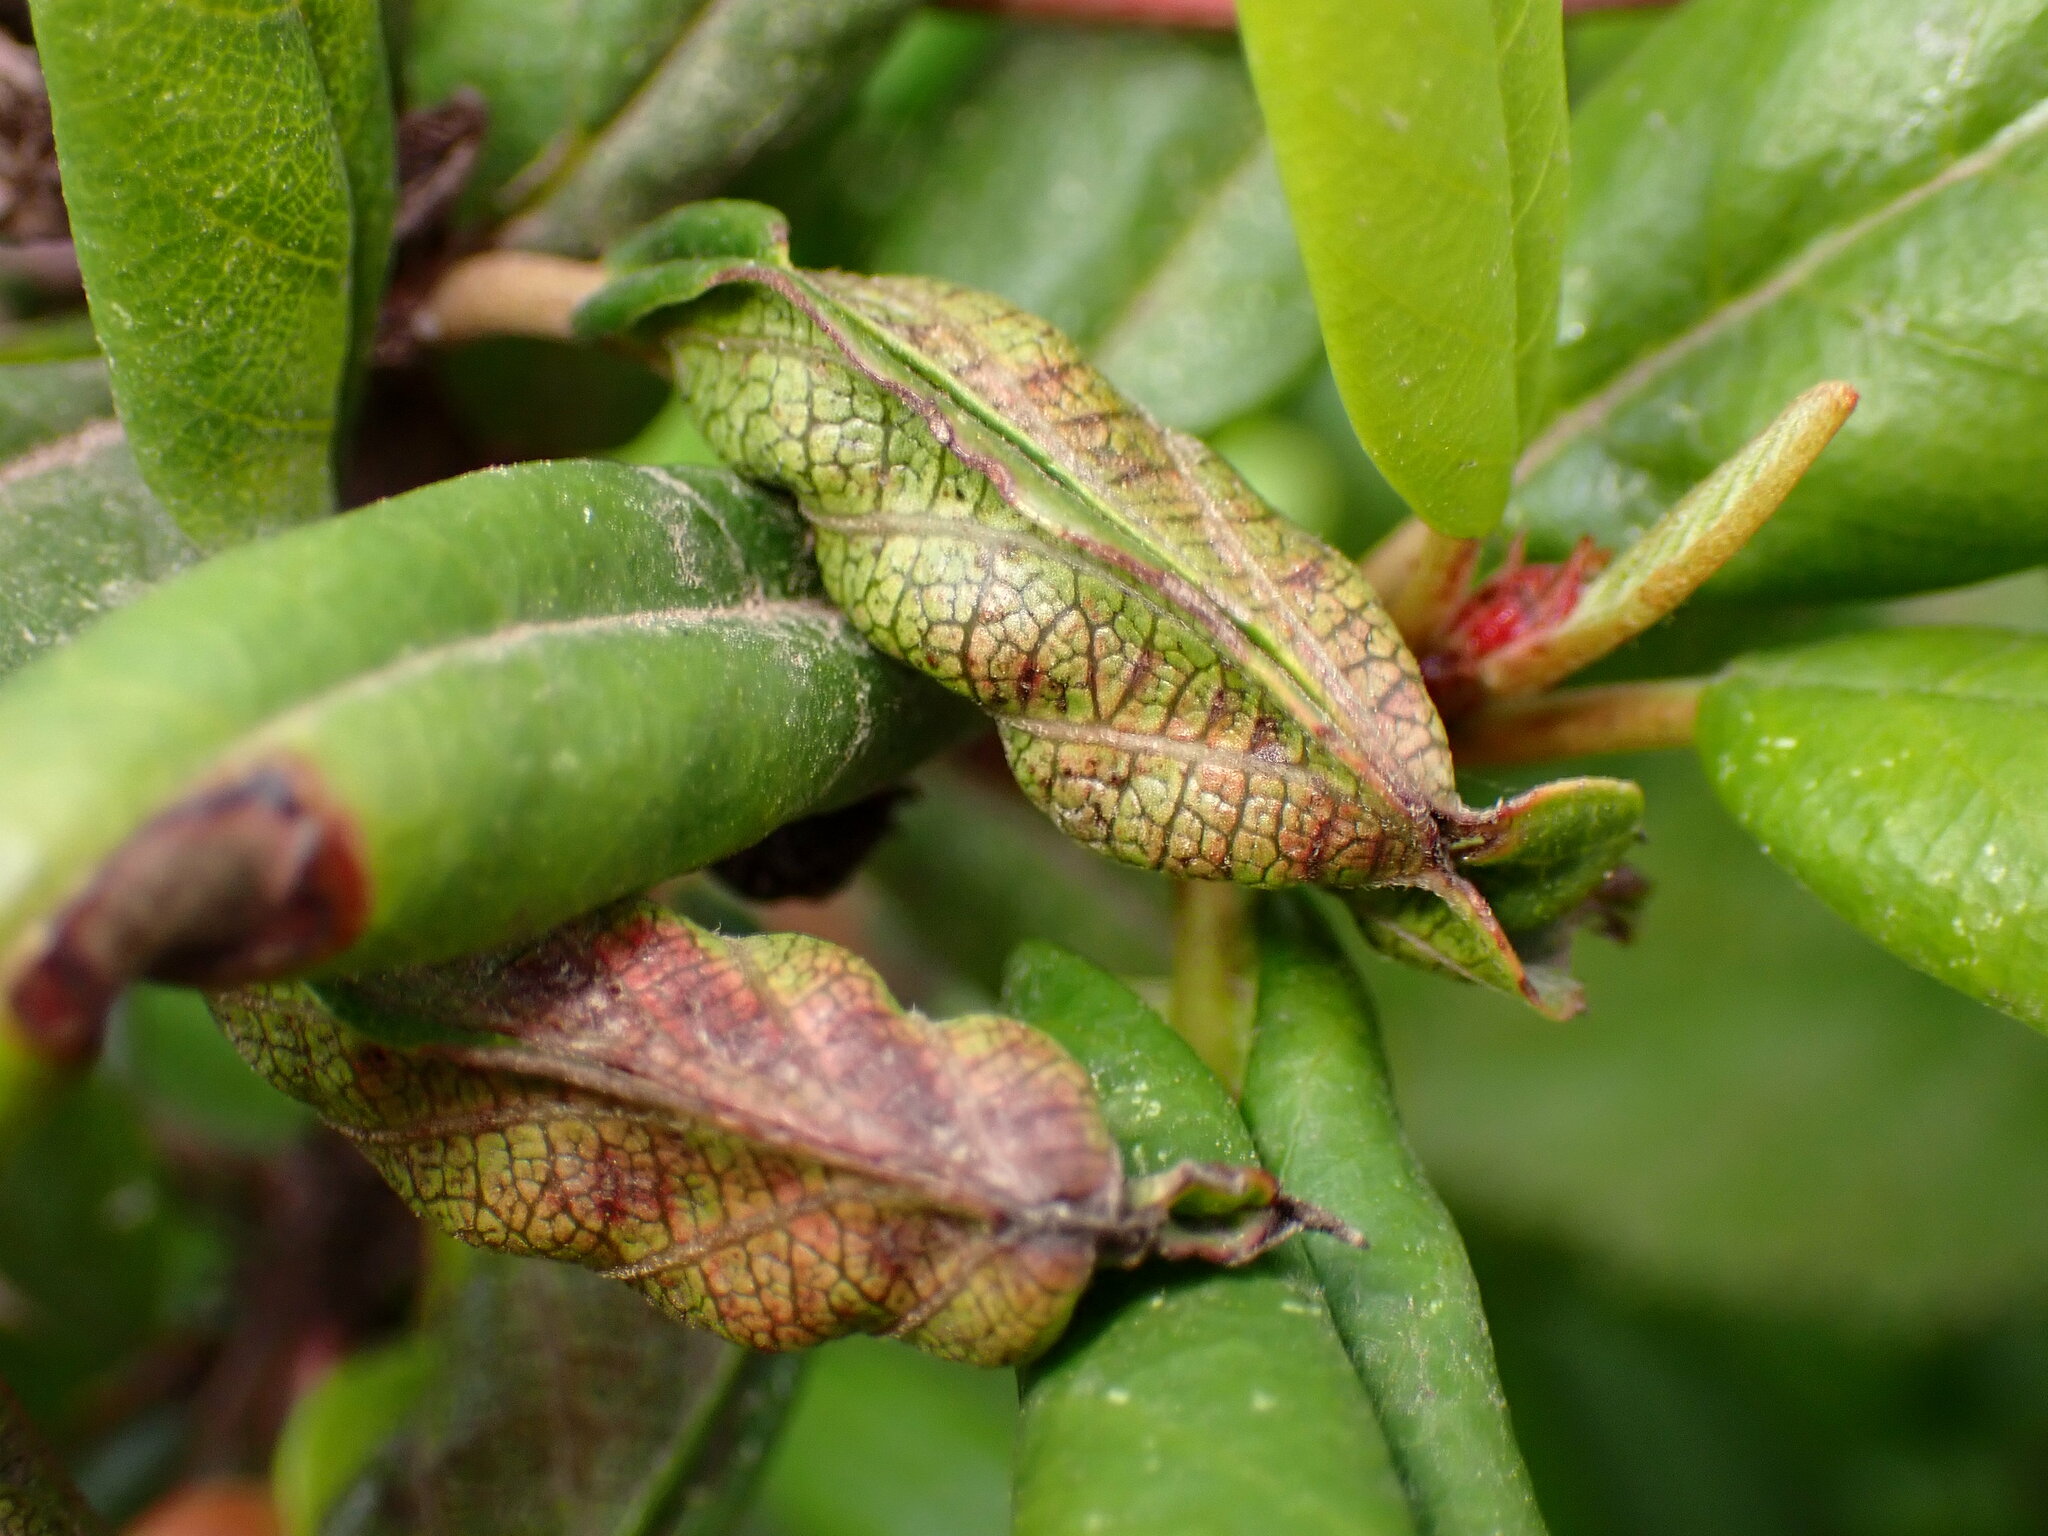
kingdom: Animalia
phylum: Arthropoda
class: Insecta
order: Lepidoptera
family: Cosmopterigidae
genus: Sorhagenia
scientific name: Sorhagenia nimbosus
